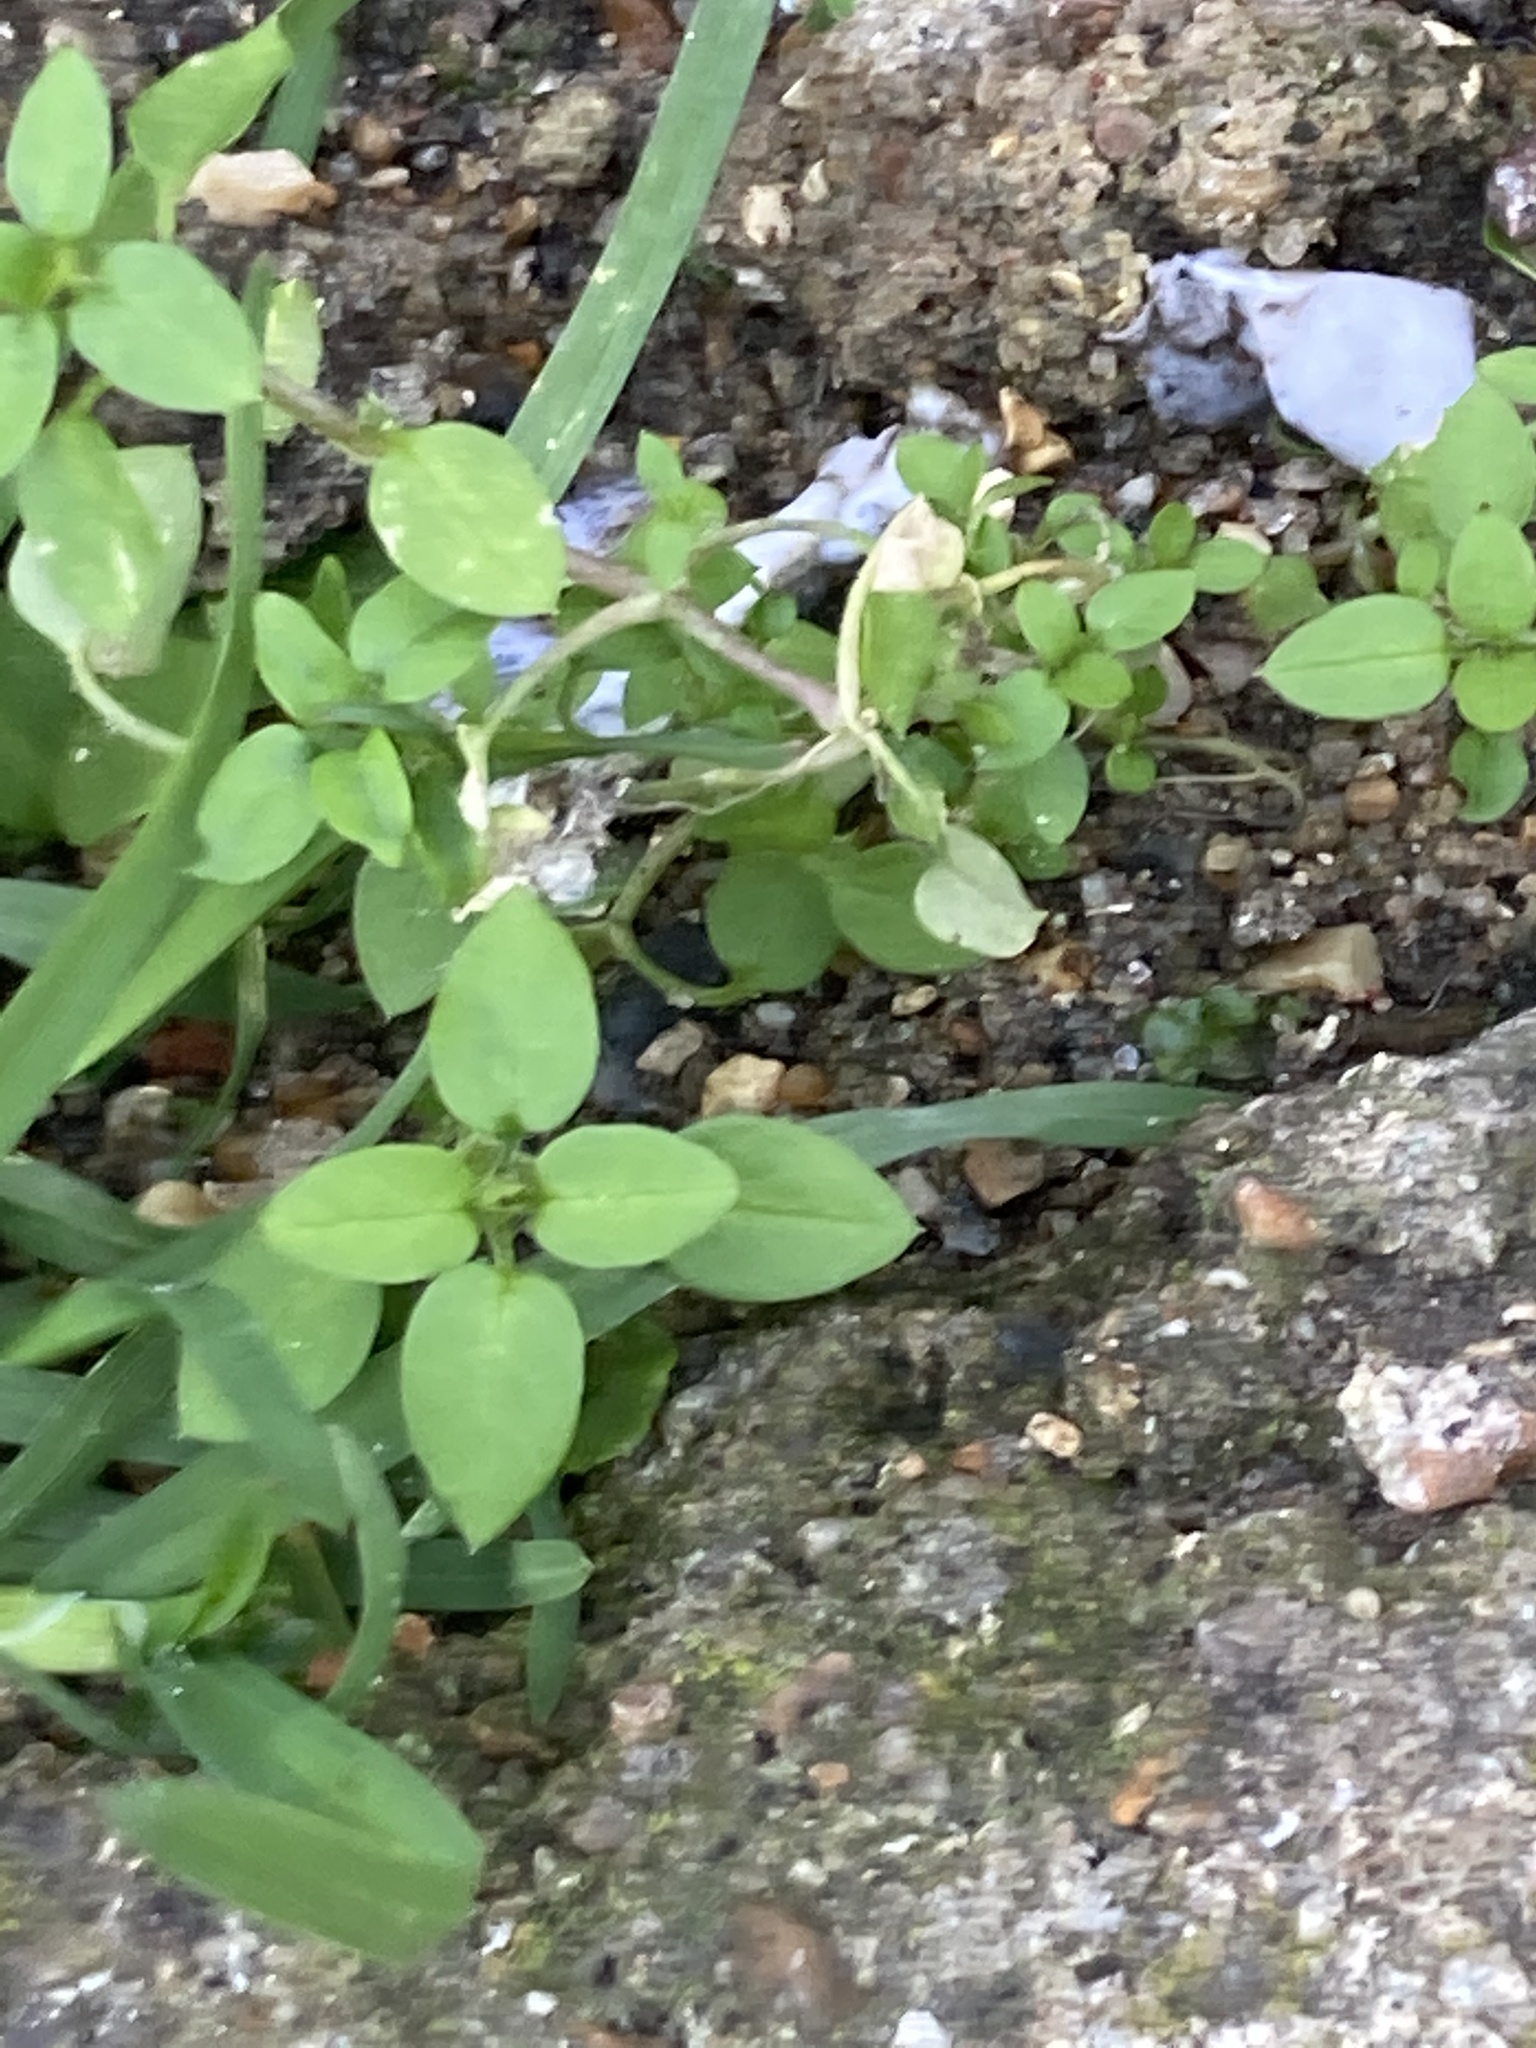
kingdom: Plantae
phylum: Tracheophyta
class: Magnoliopsida
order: Caryophyllales
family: Caryophyllaceae
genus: Stellaria
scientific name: Stellaria media
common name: Common chickweed
